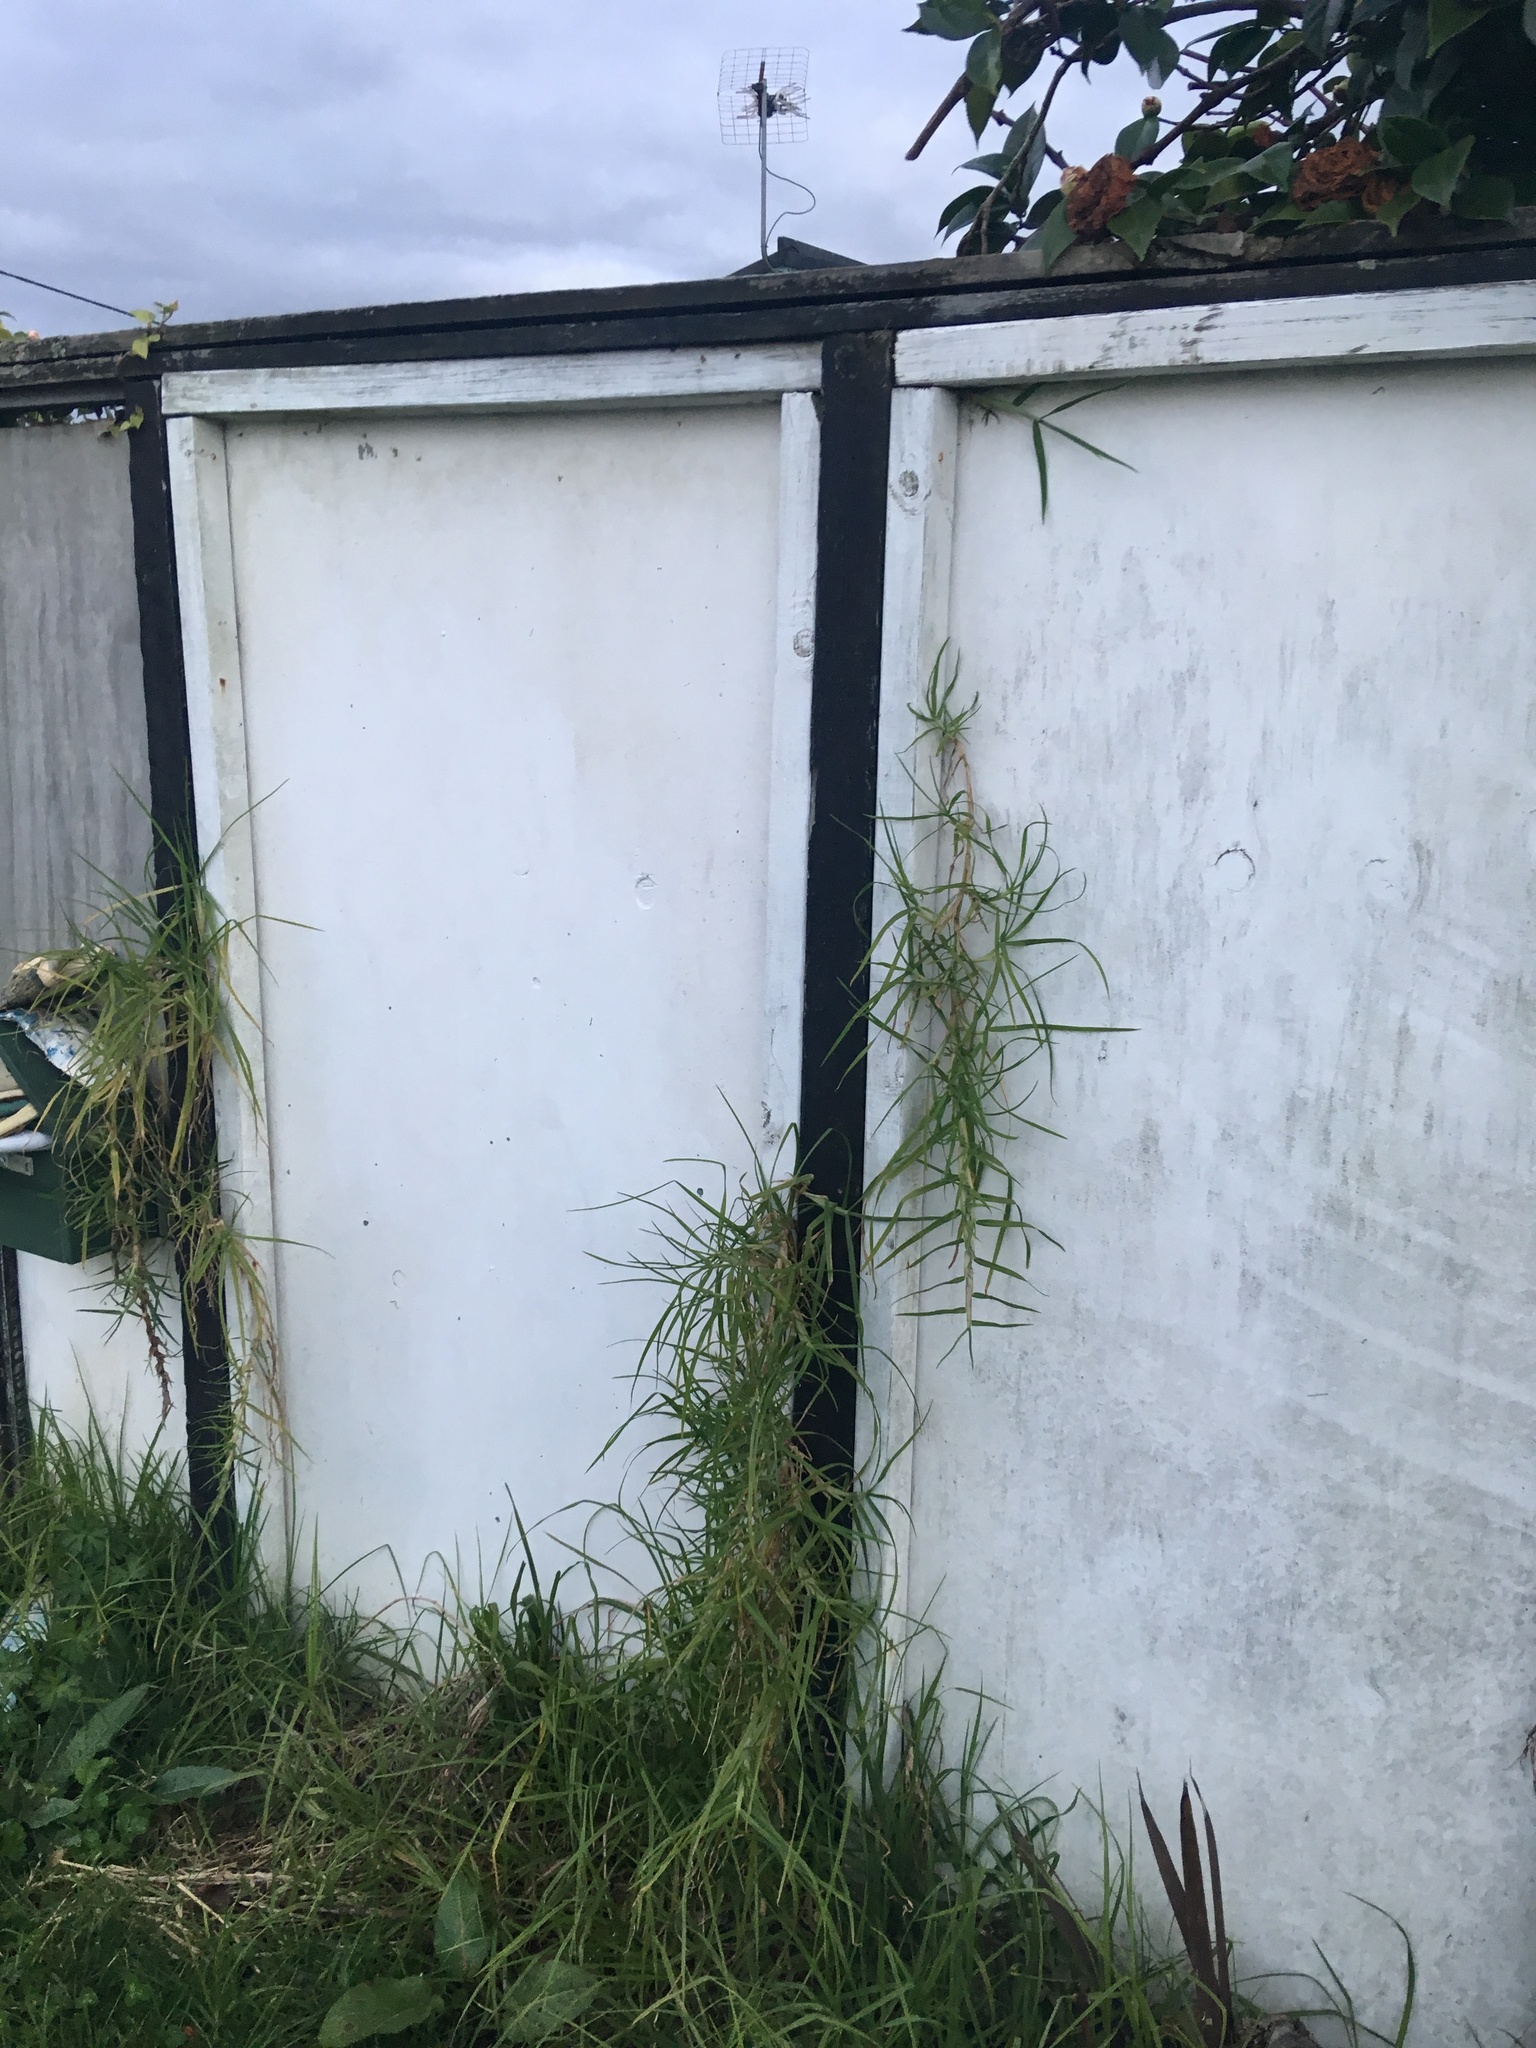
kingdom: Plantae
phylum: Tracheophyta
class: Liliopsida
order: Poales
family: Poaceae
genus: Cenchrus
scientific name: Cenchrus clandestinus
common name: Kikuyugrass
